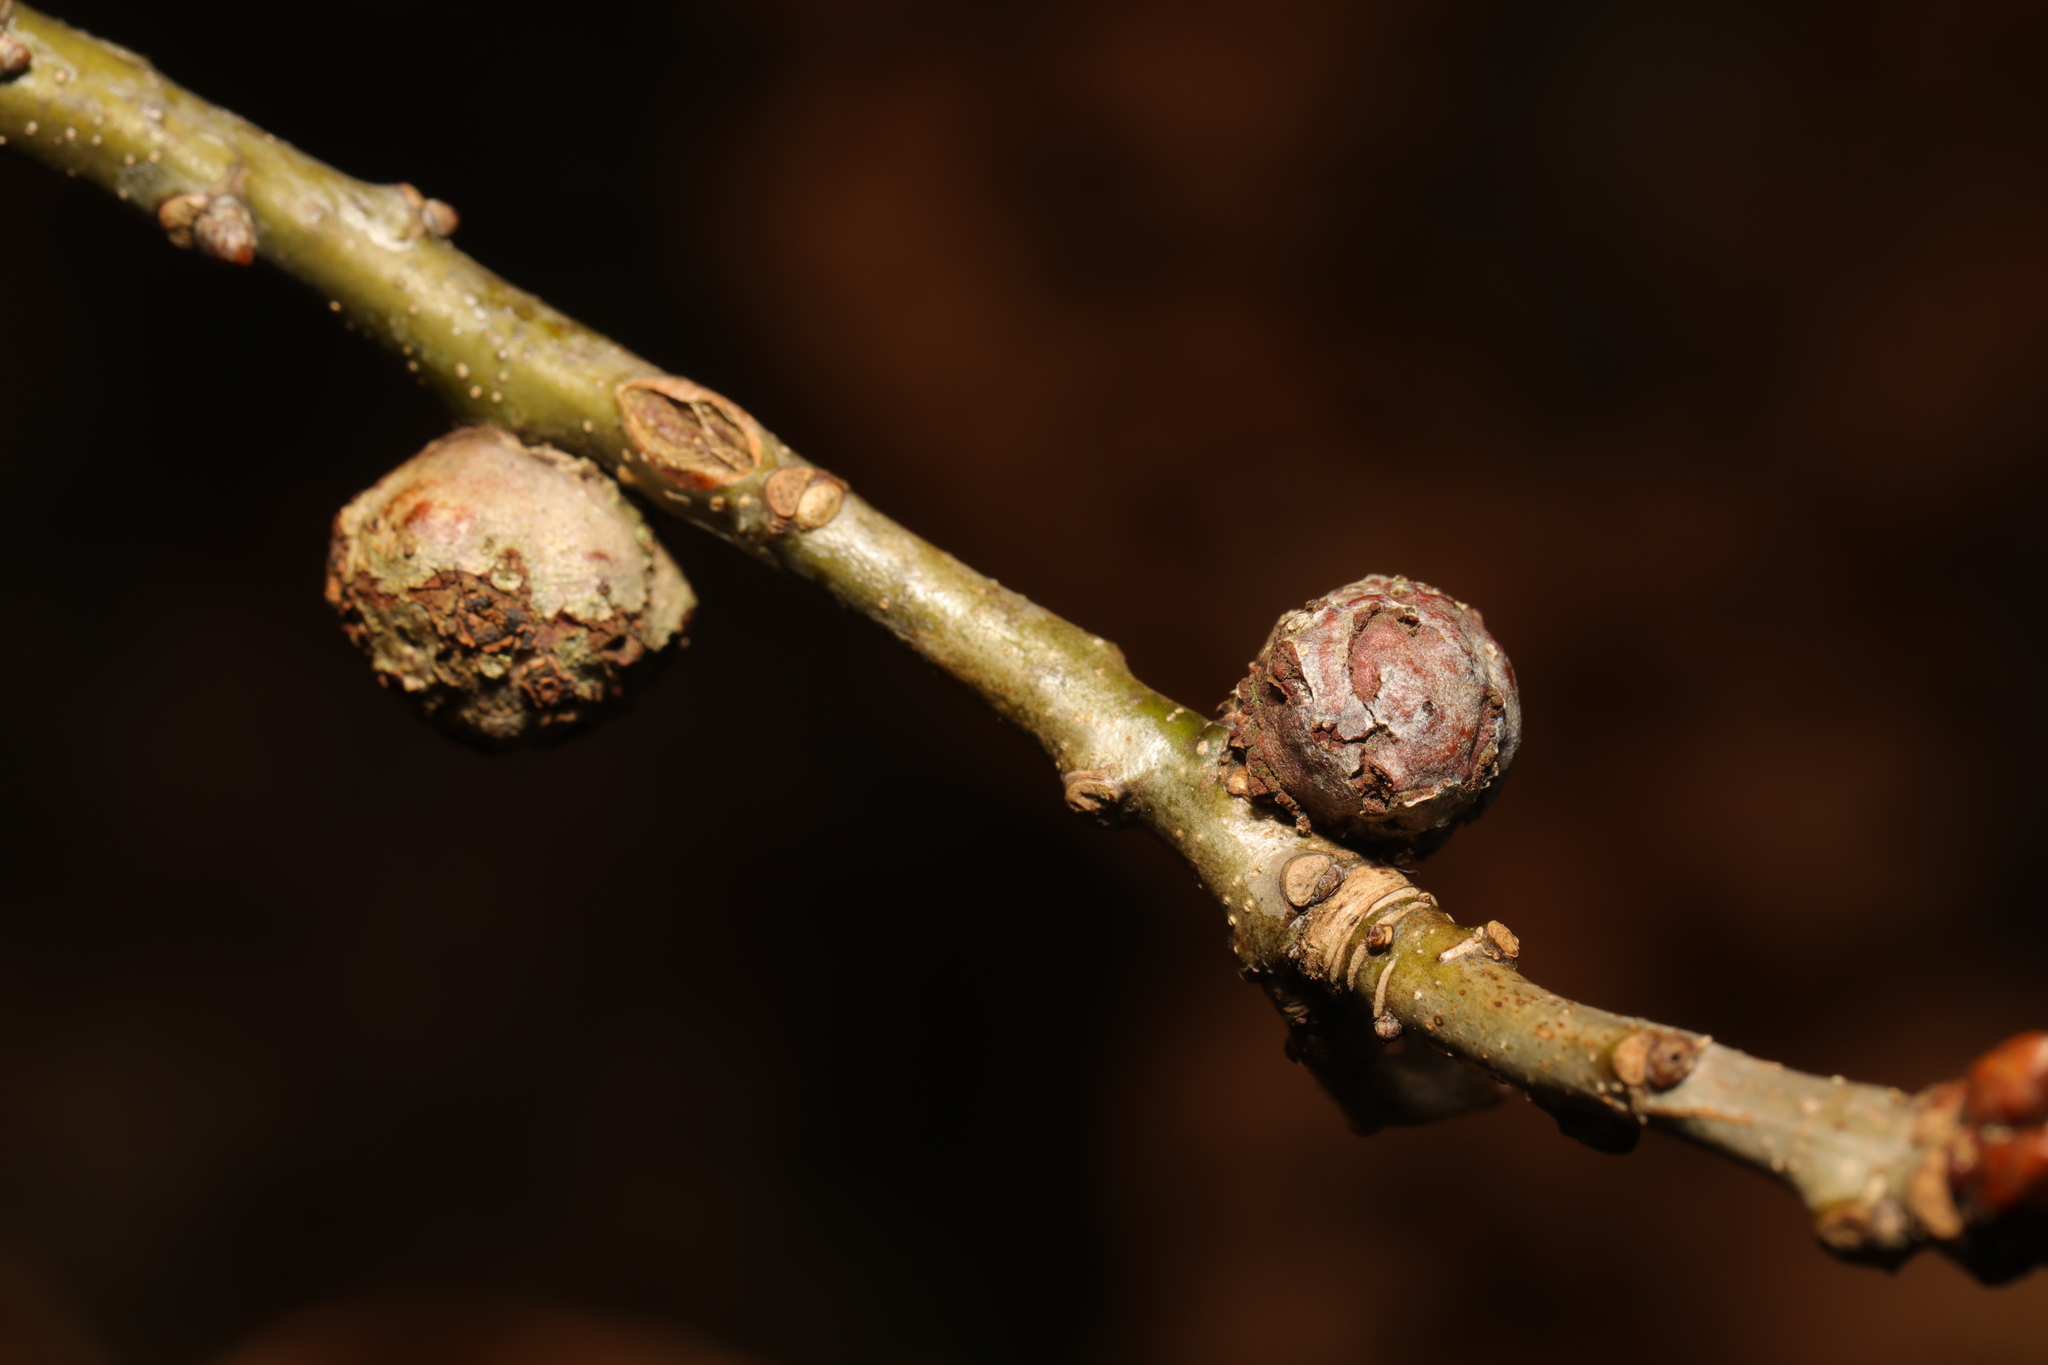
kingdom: Animalia
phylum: Arthropoda
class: Insecta
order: Hymenoptera
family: Cynipidae
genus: Andricus
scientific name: Andricus lignicolus
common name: Cola-nut gall
